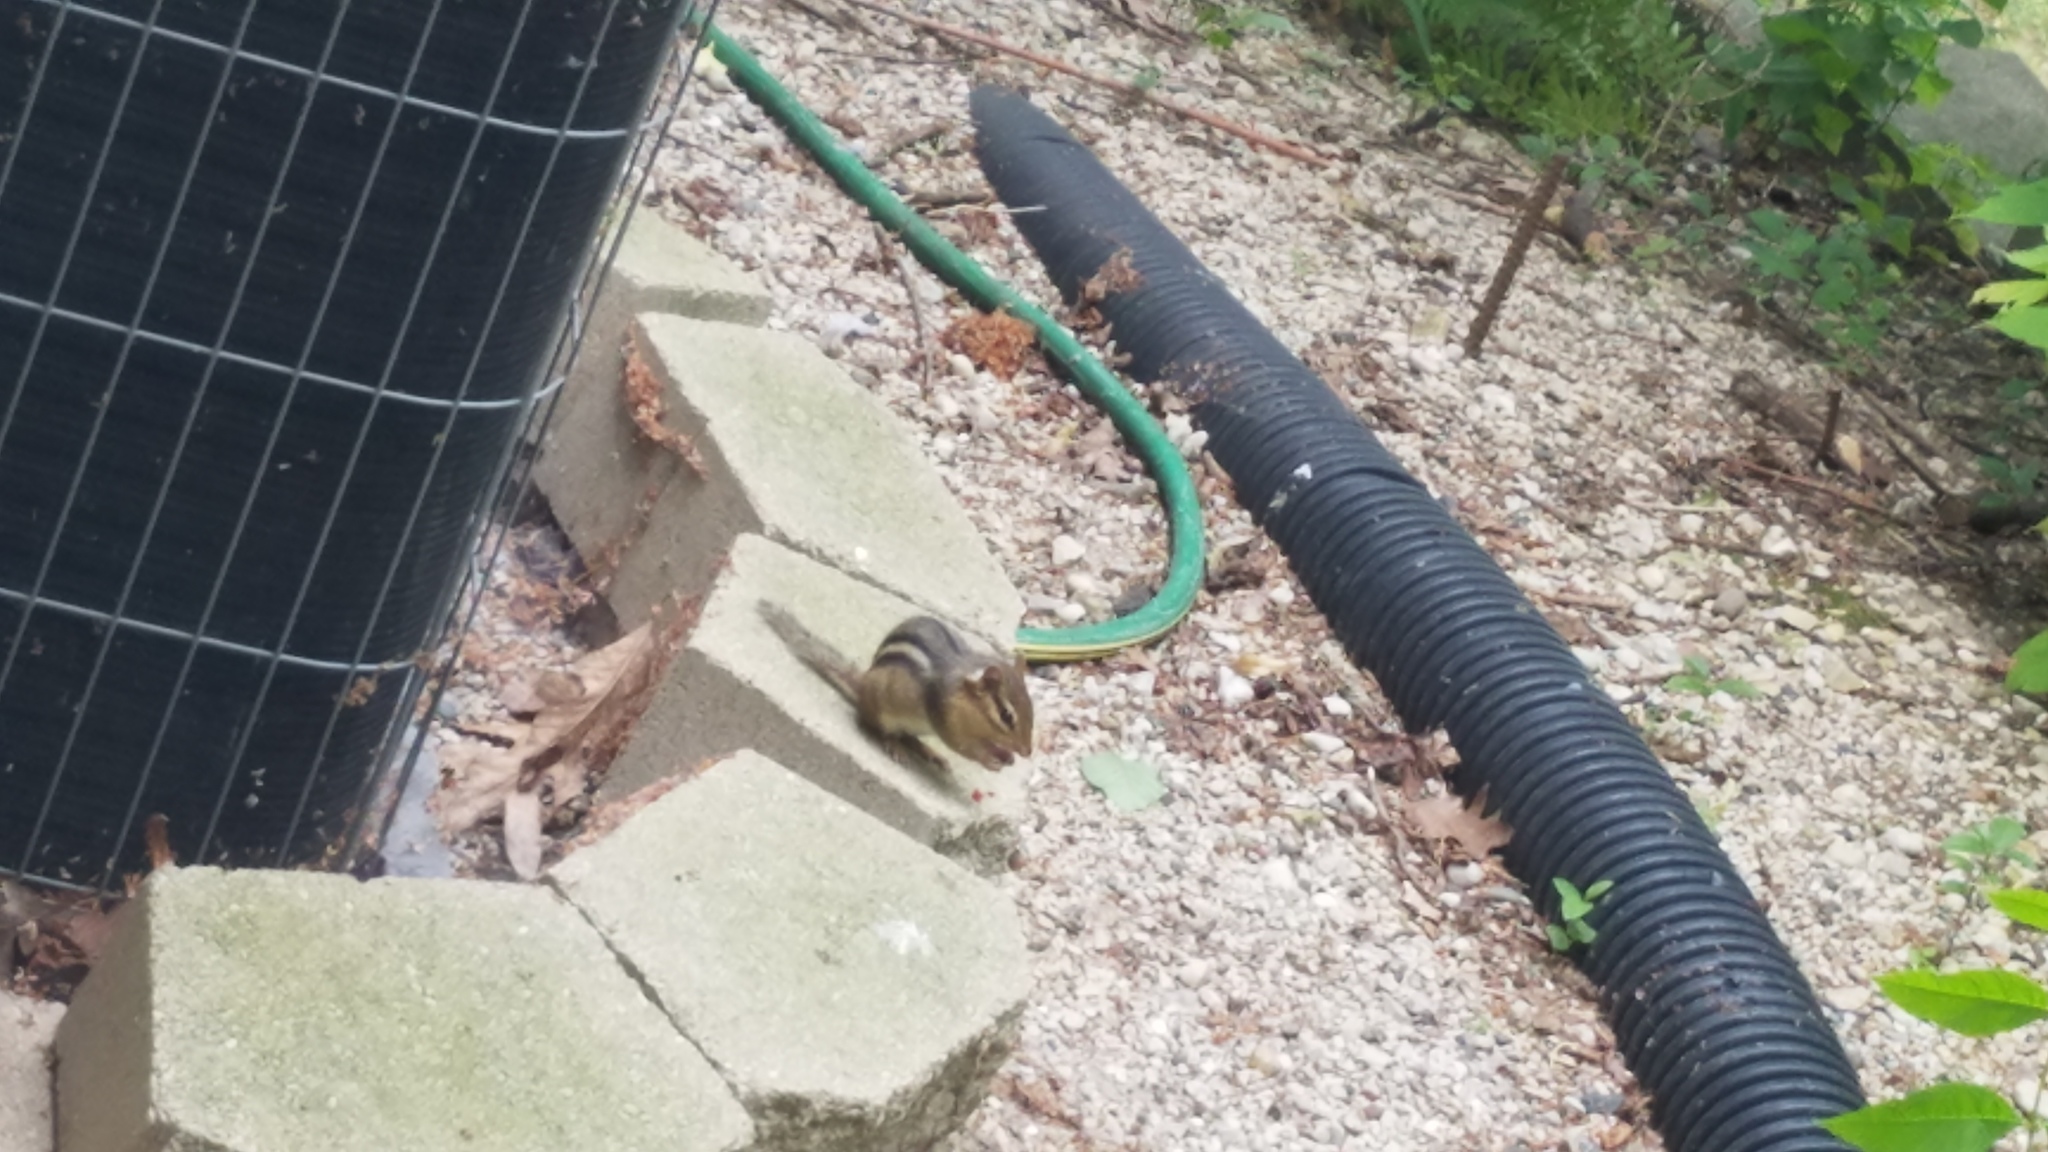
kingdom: Animalia
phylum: Chordata
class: Mammalia
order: Rodentia
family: Sciuridae
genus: Tamias
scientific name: Tamias striatus
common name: Eastern chipmunk
